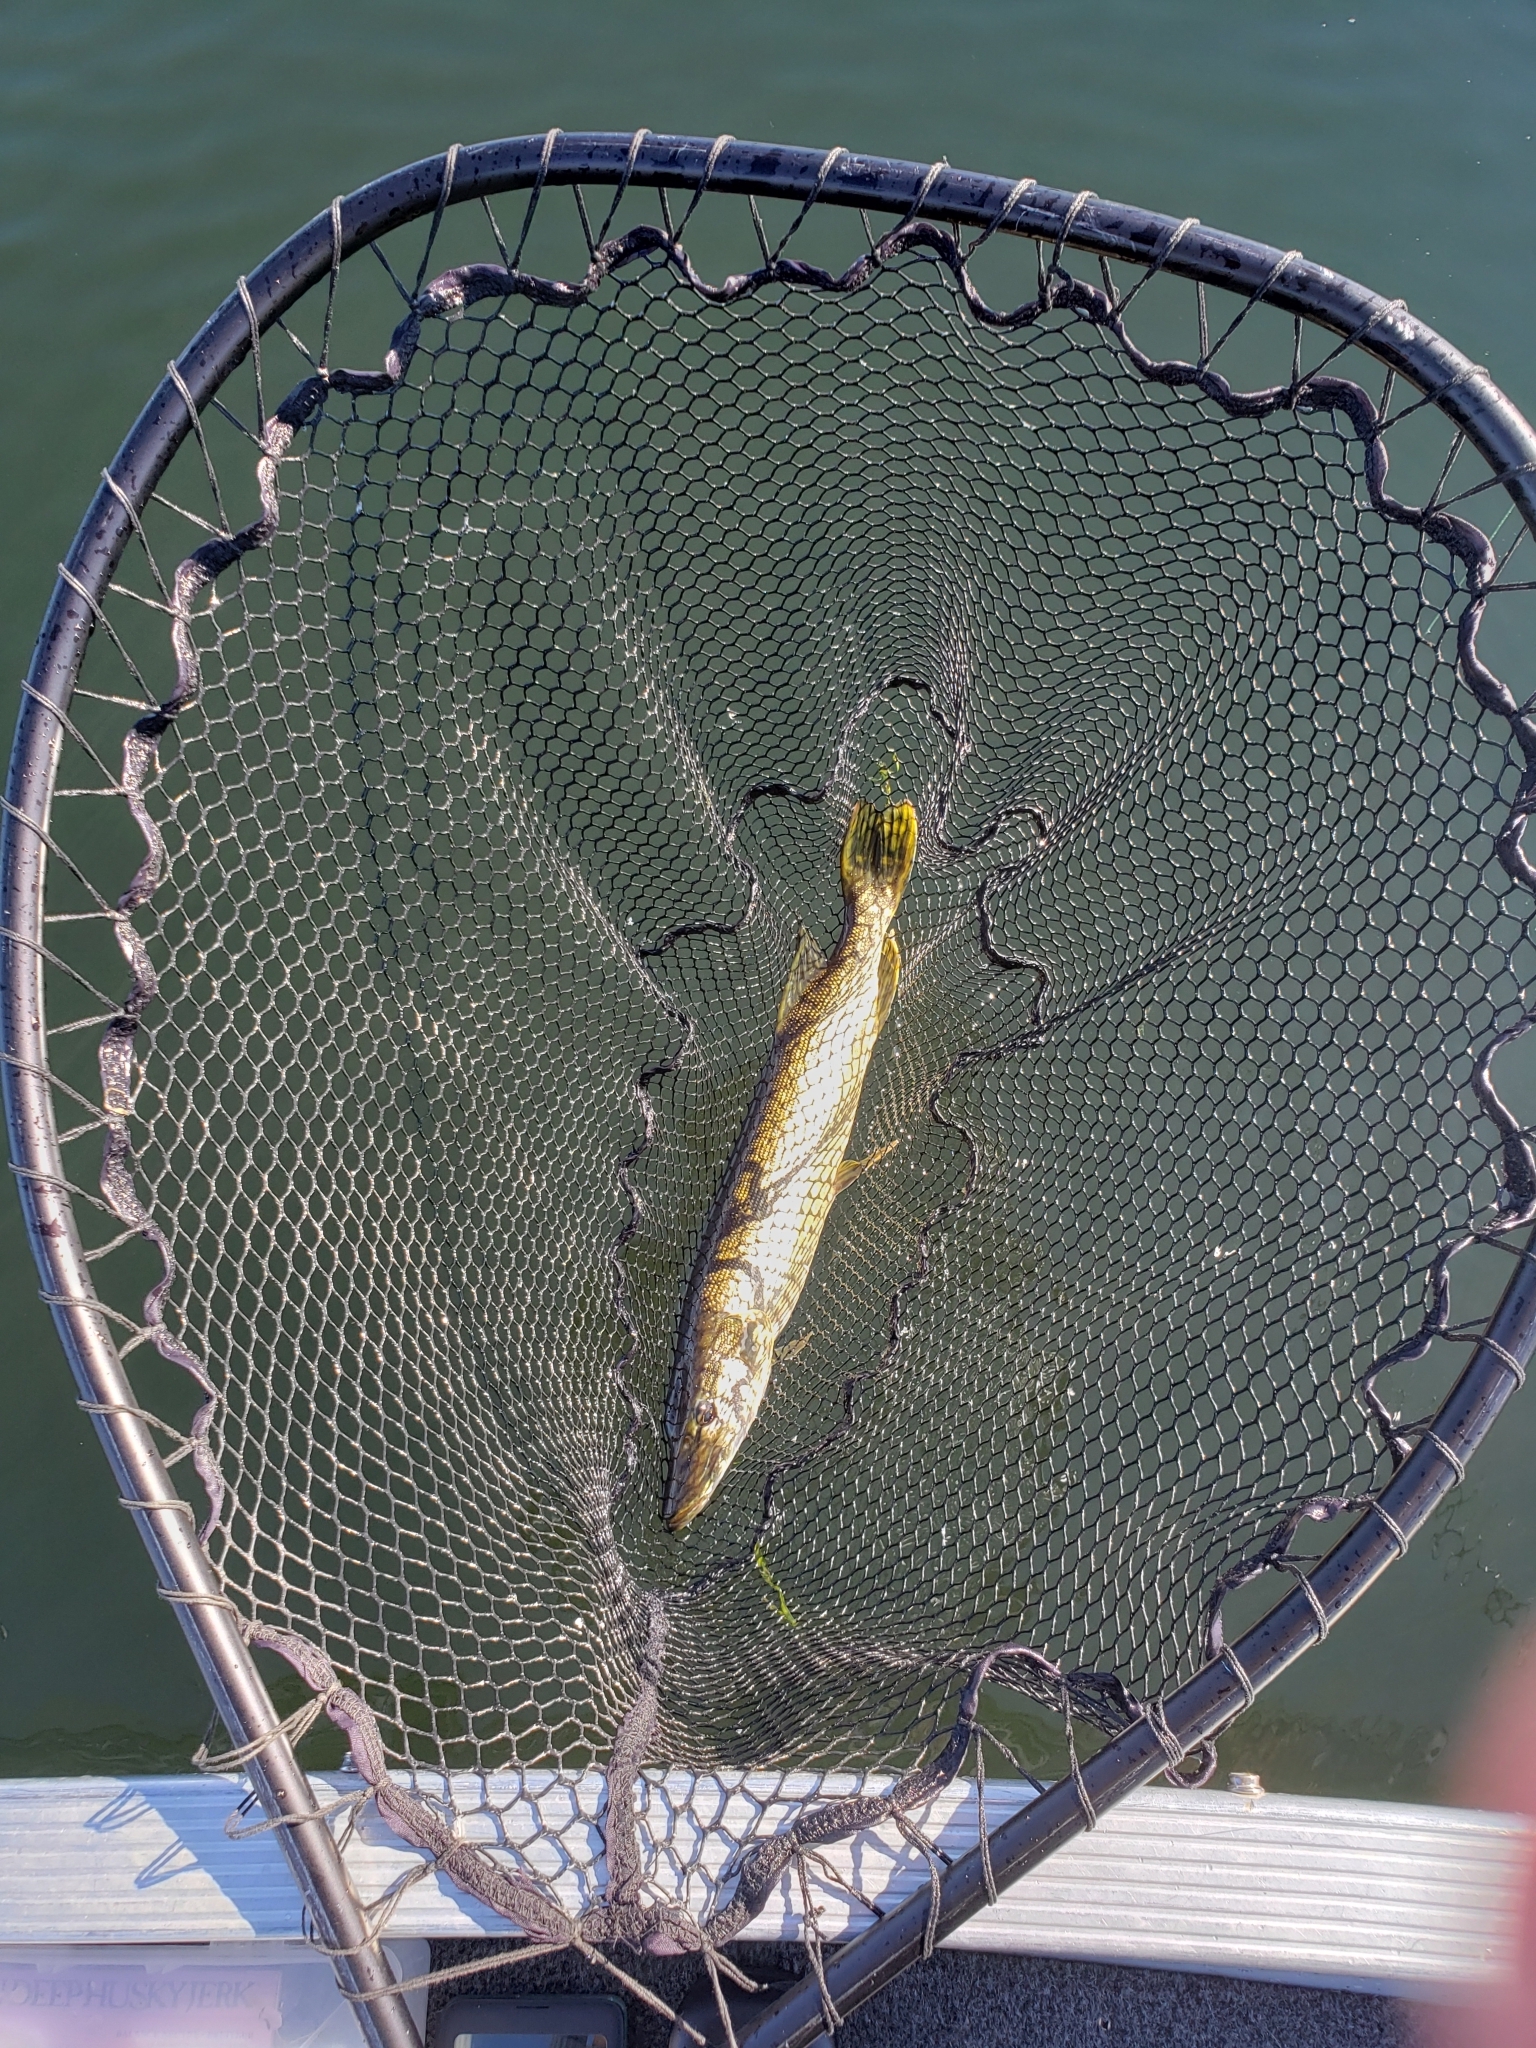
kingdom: Animalia
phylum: Chordata
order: Esociformes
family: Esocidae
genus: Esox
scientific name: Esox lucius
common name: Northern pike
